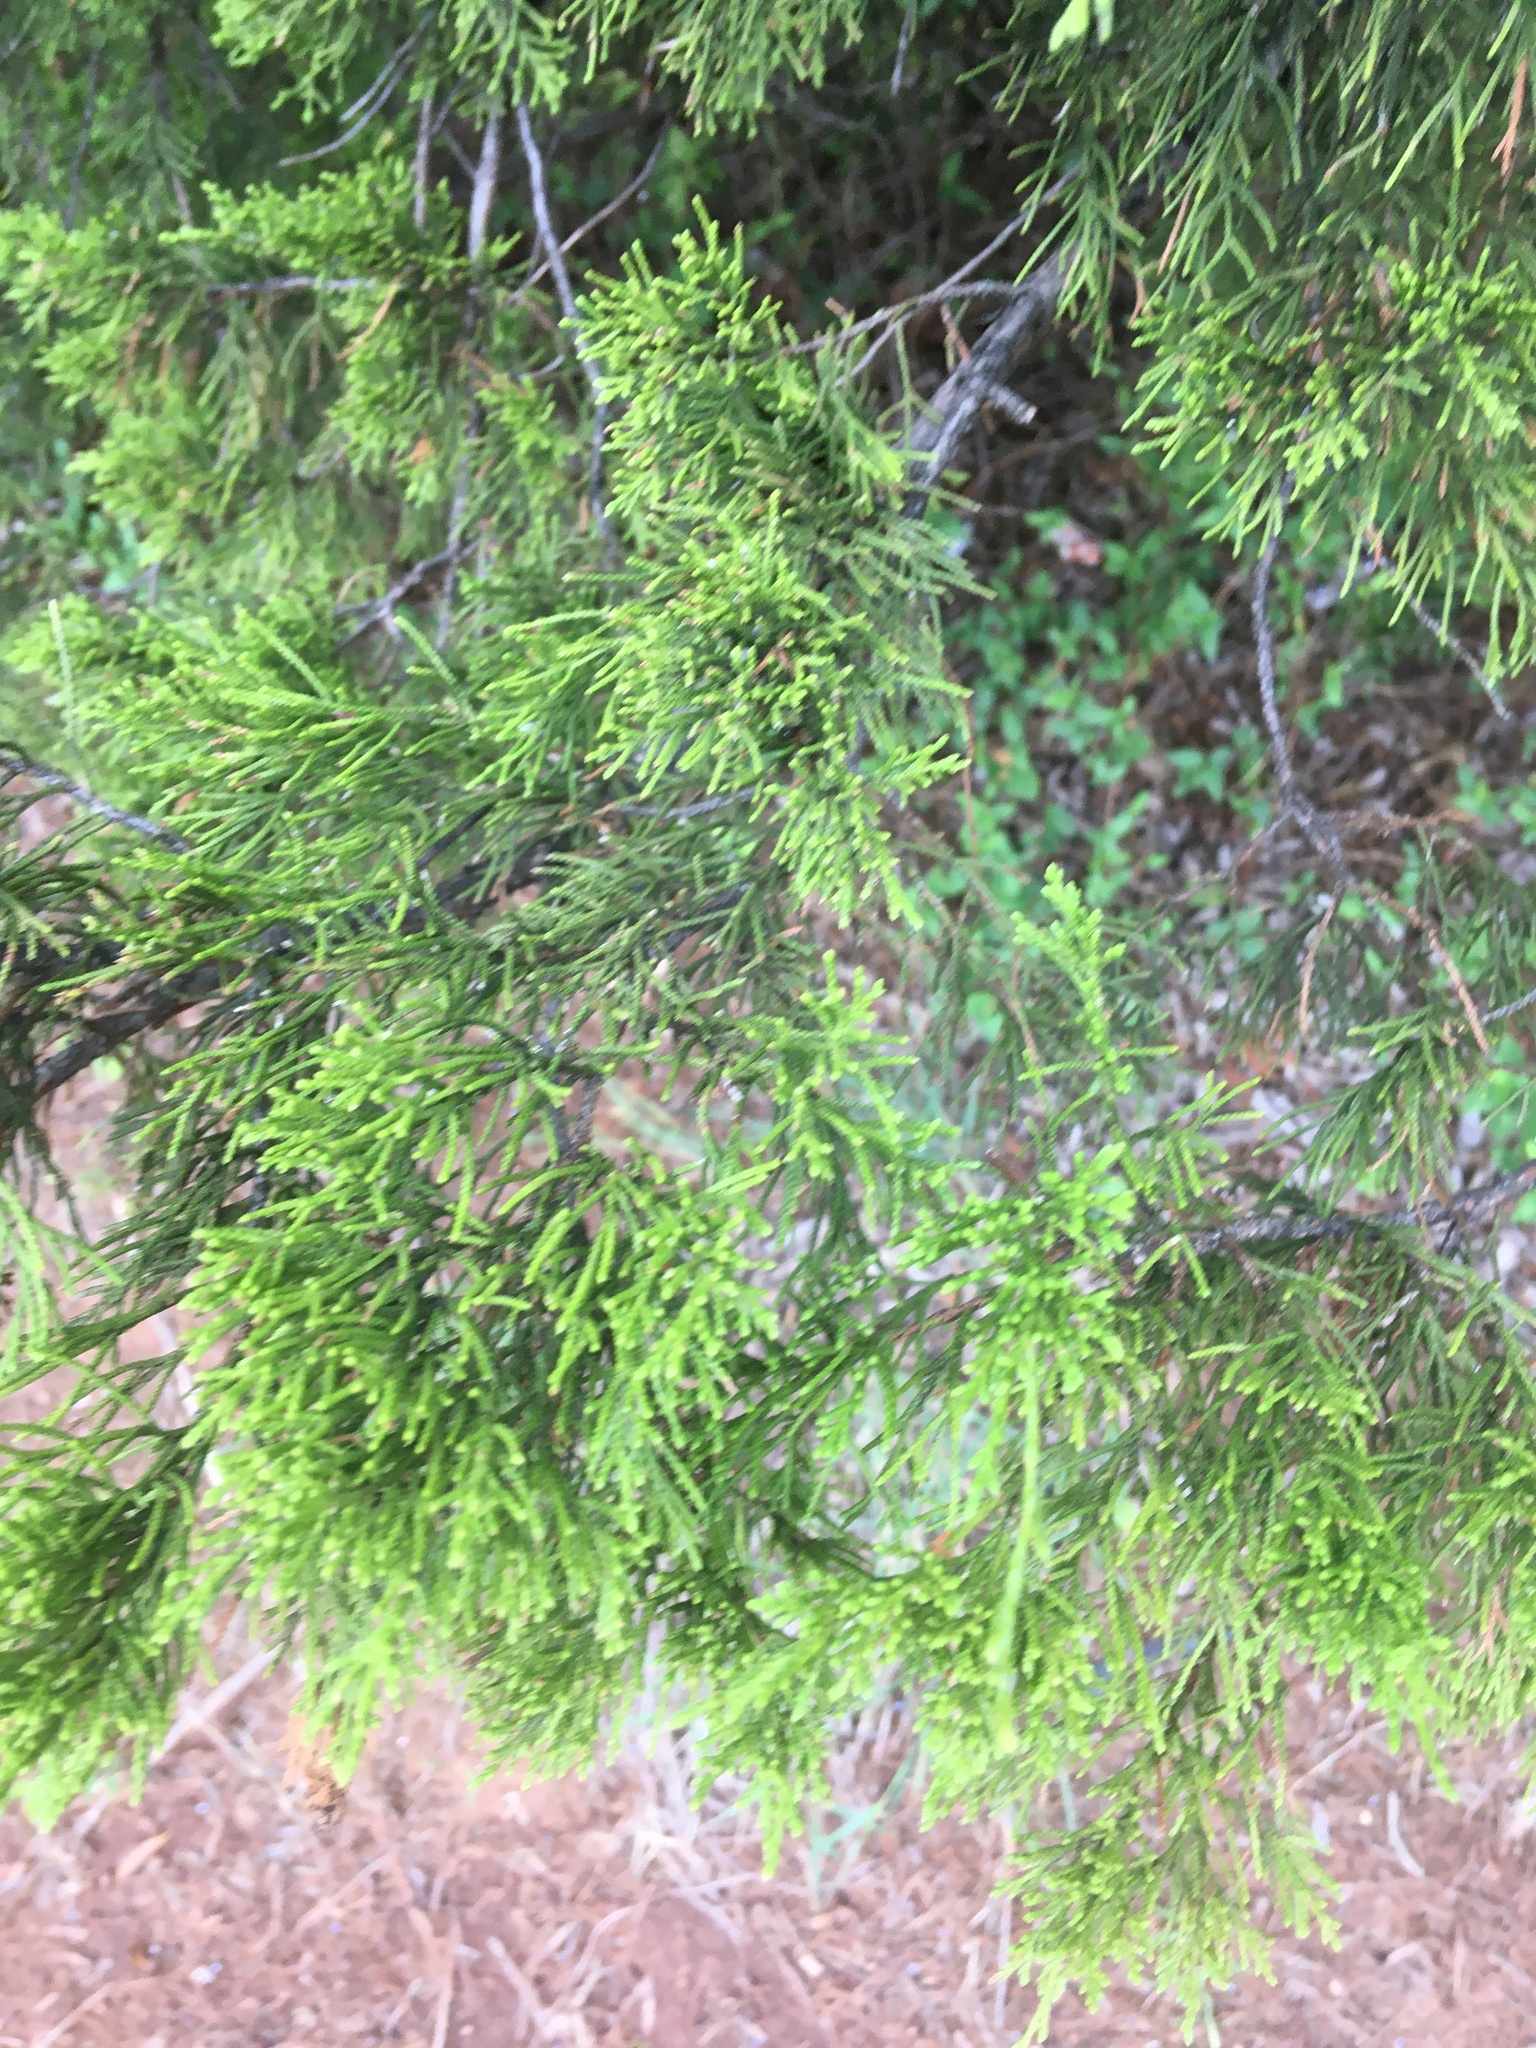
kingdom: Plantae
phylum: Tracheophyta
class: Pinopsida
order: Pinales
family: Cupressaceae
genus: Juniperus
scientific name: Juniperus virginiana
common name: Red juniper
